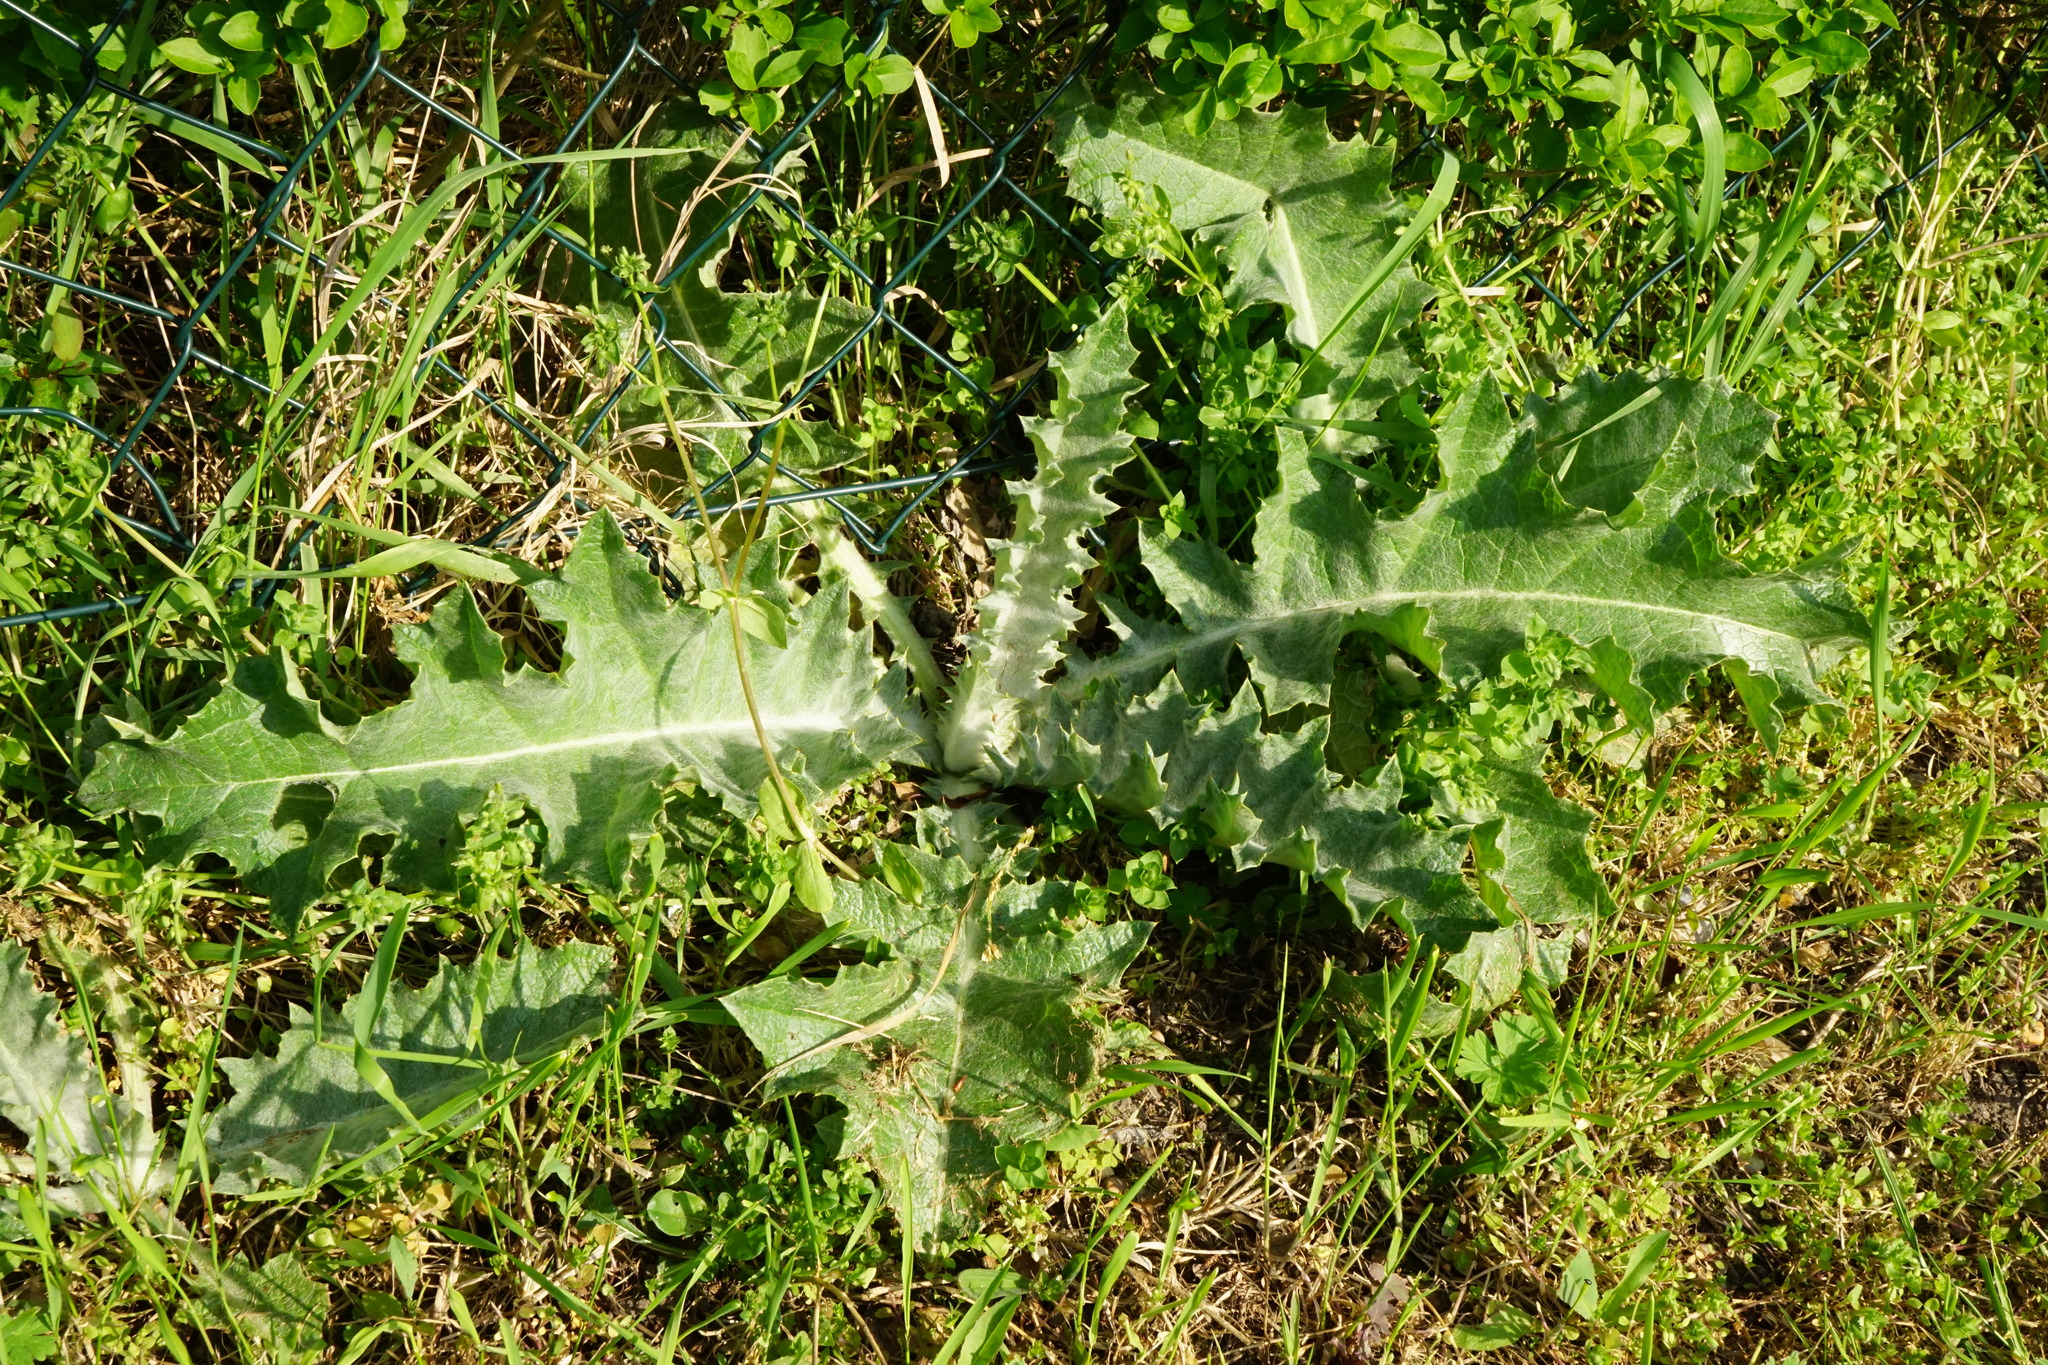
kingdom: Plantae
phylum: Tracheophyta
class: Magnoliopsida
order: Asterales
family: Asteraceae
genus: Onopordum
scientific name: Onopordum acanthium
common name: Scotch thistle
